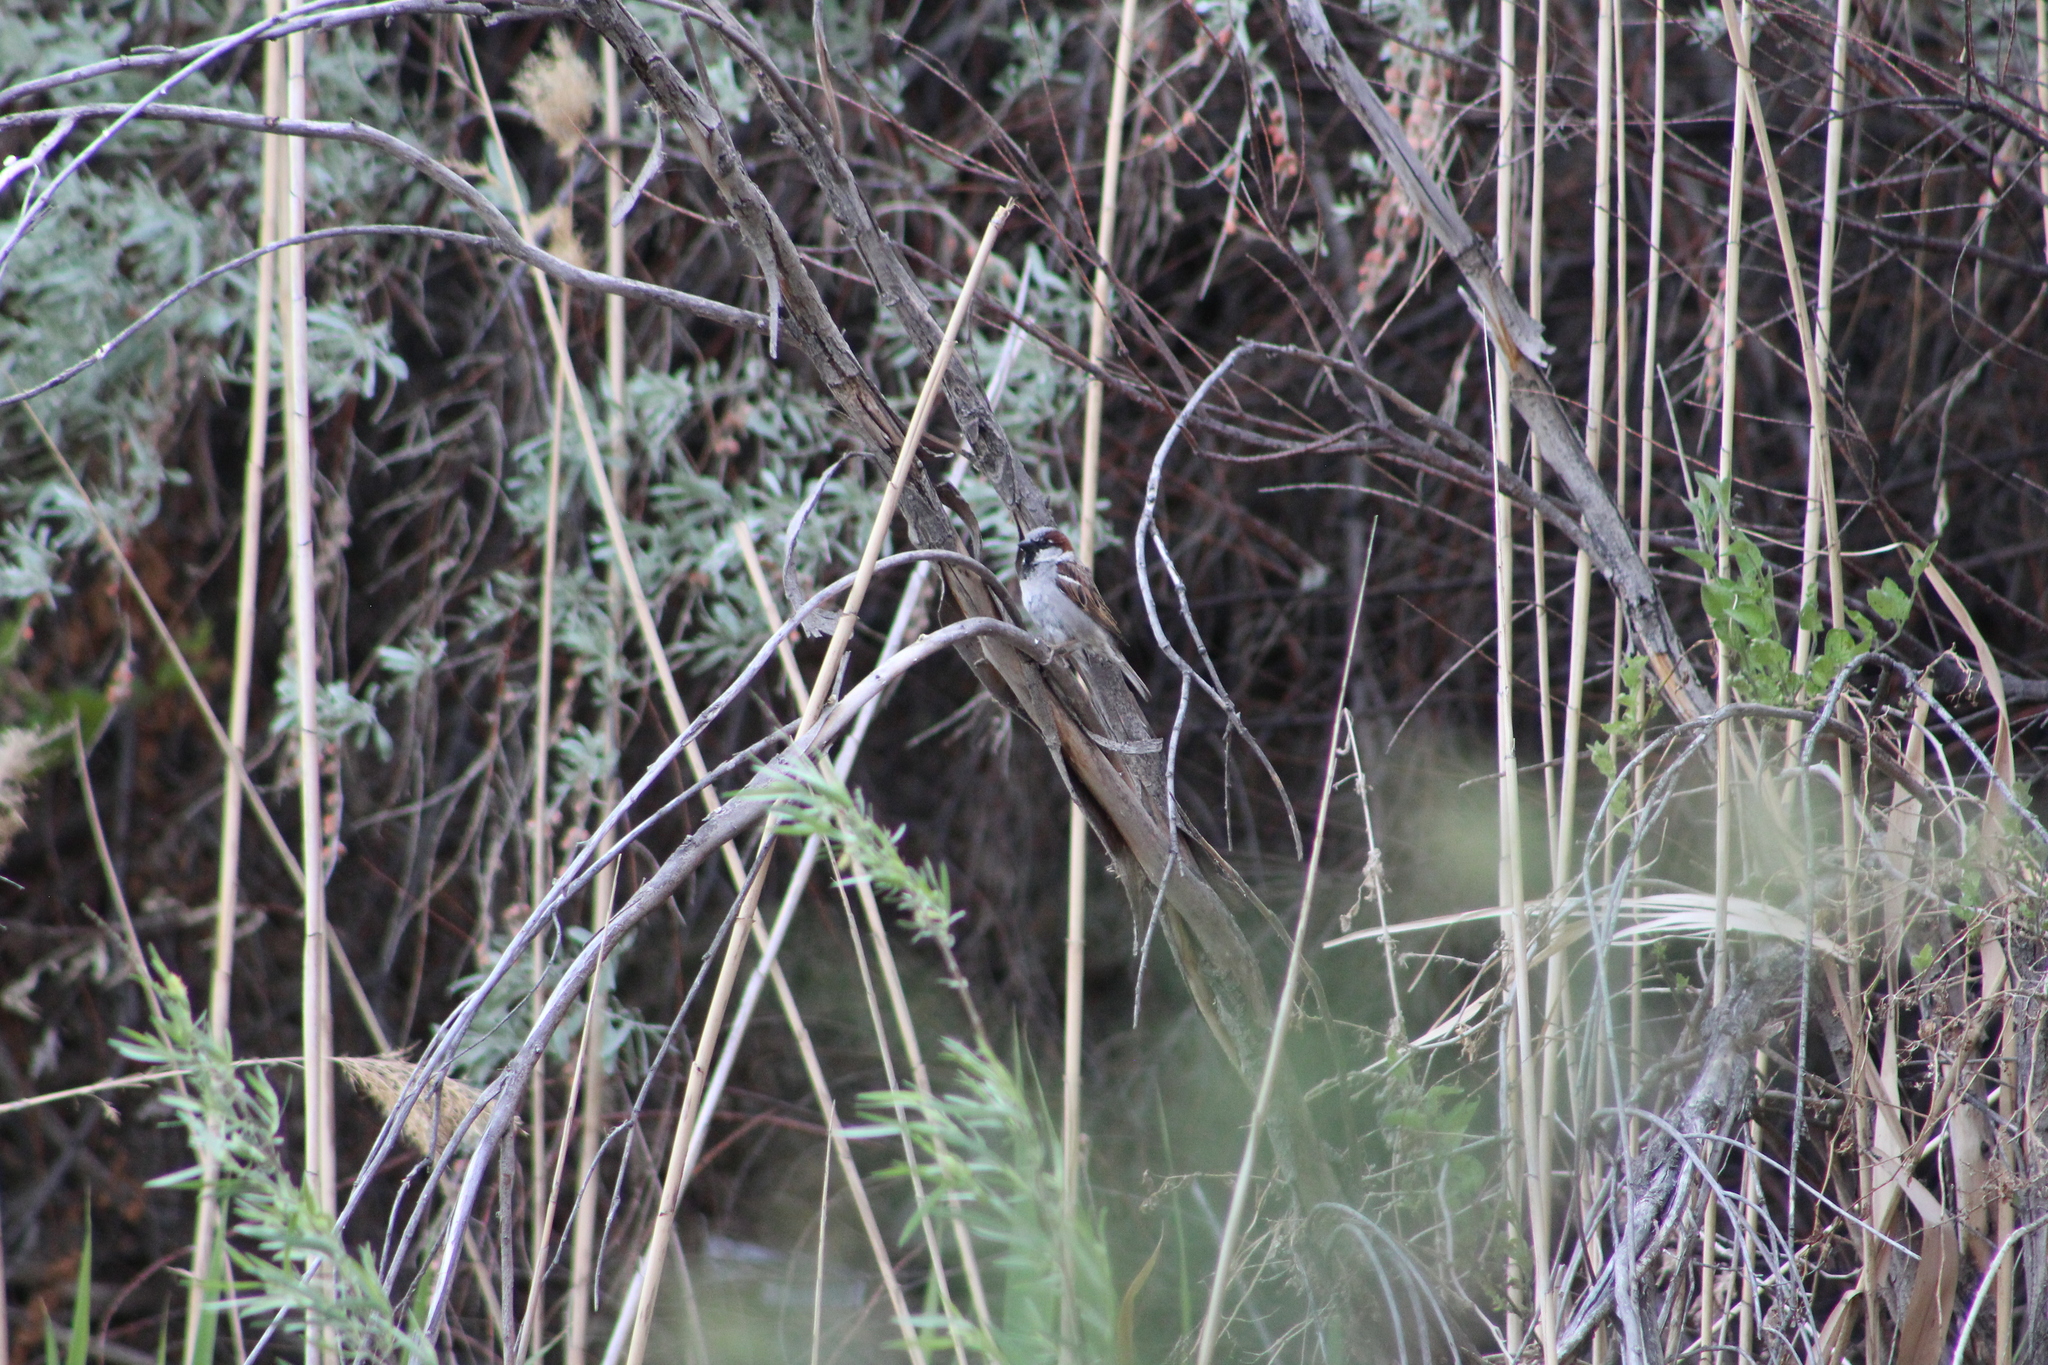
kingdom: Animalia
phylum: Chordata
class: Aves
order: Passeriformes
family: Passeridae
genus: Passer
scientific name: Passer domesticus
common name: House sparrow
